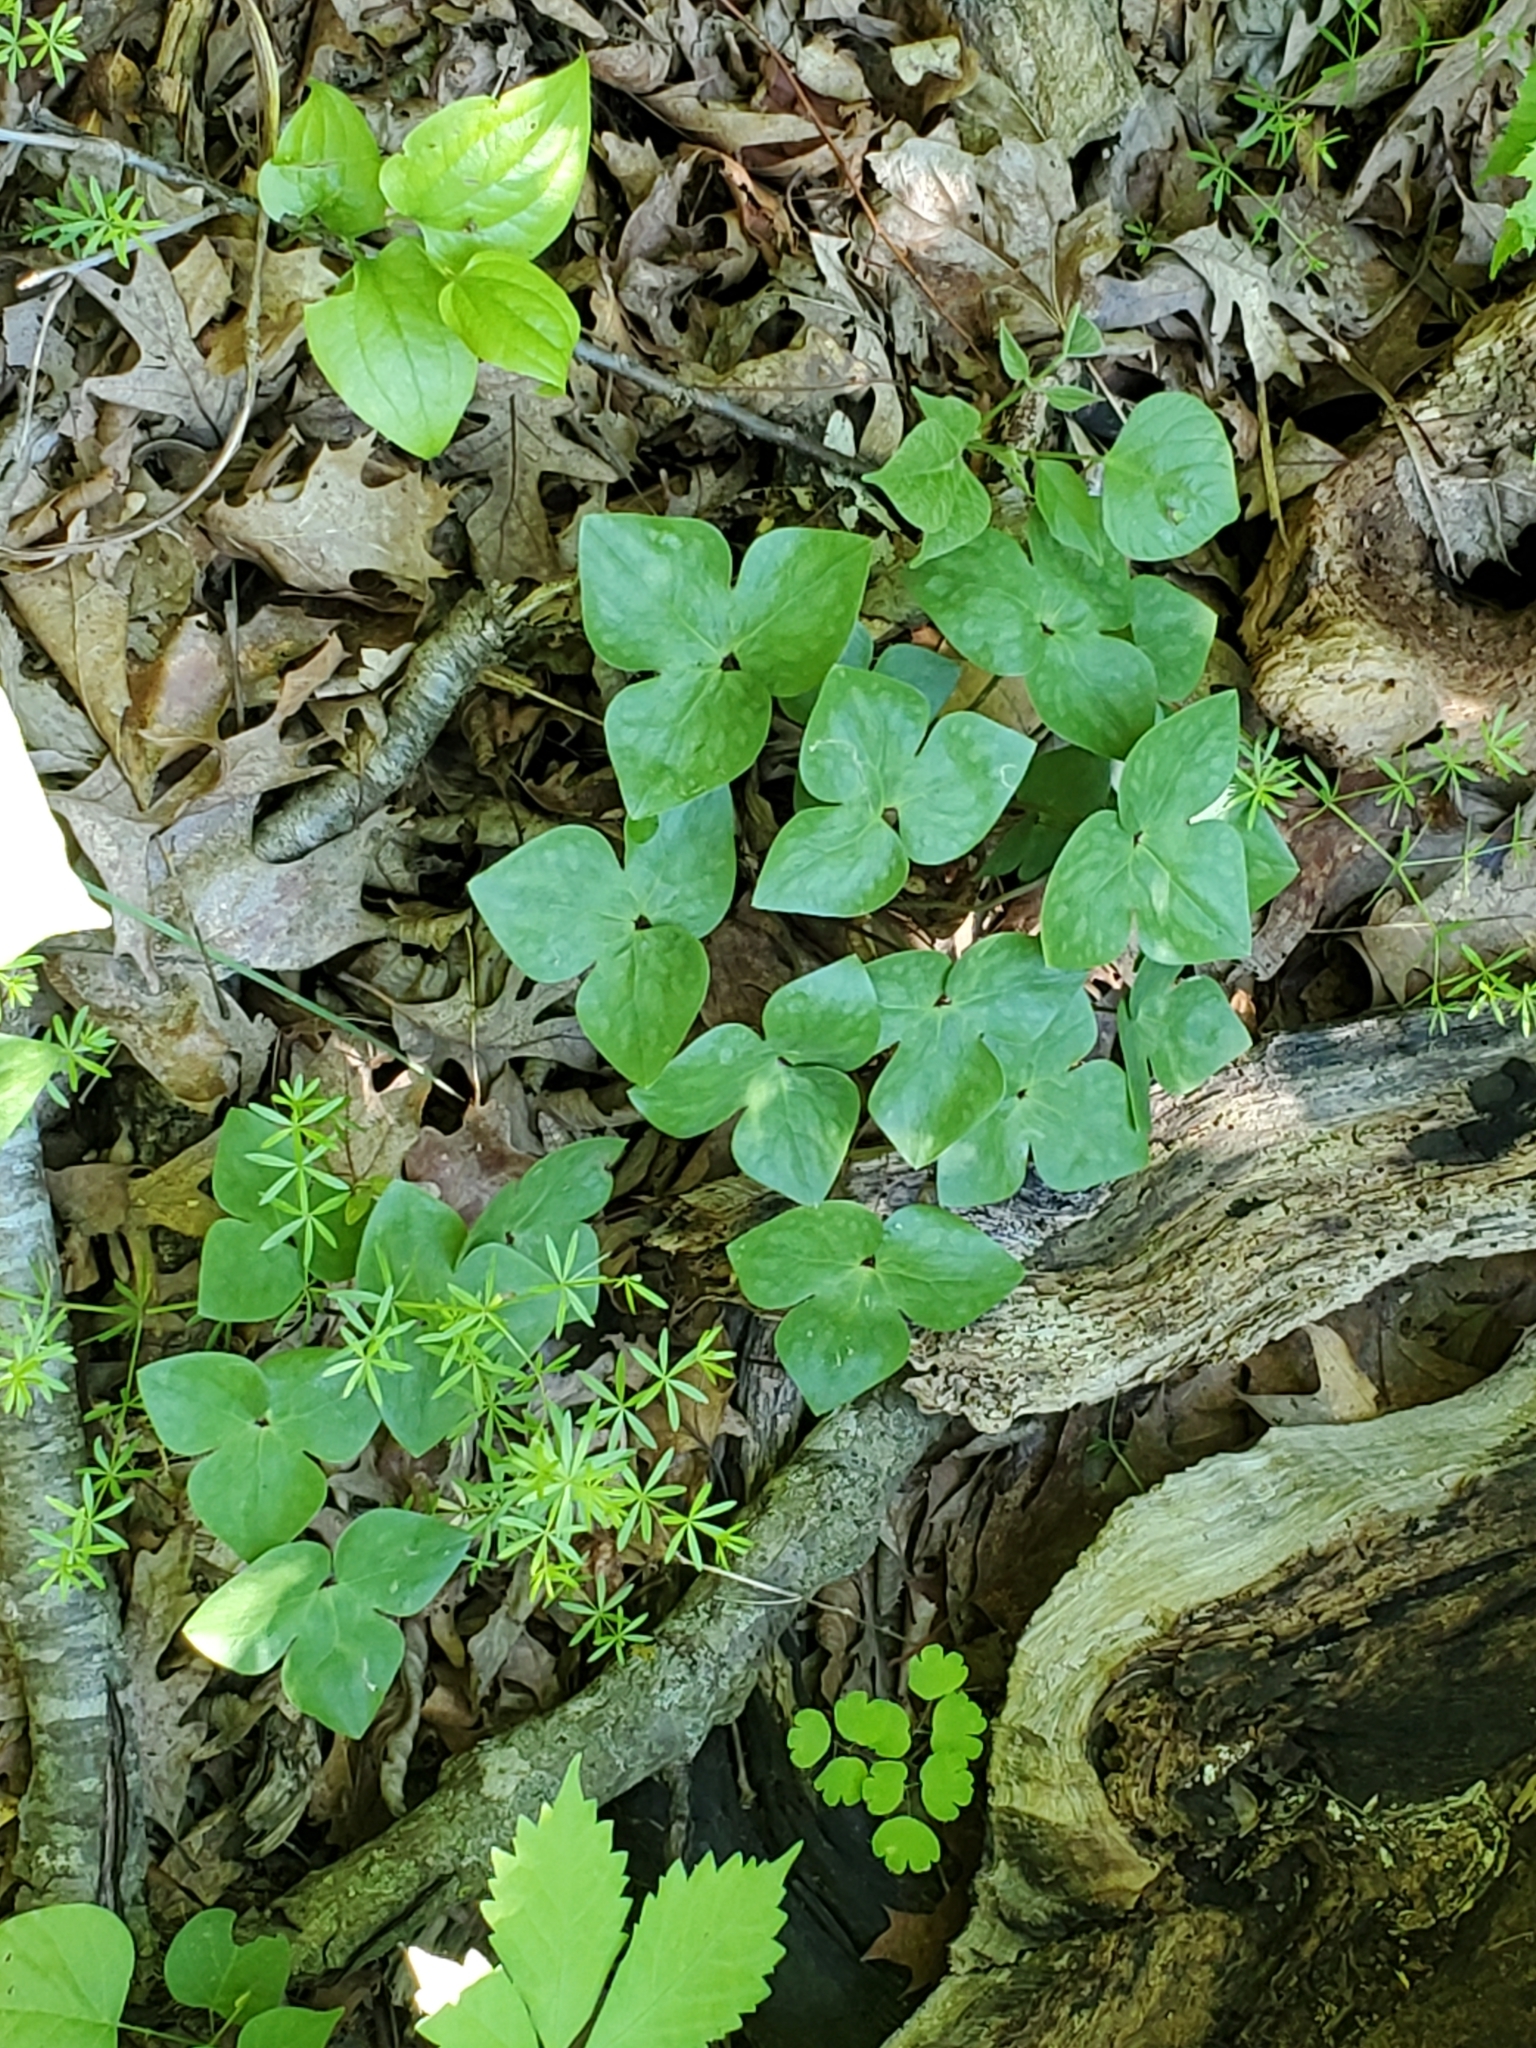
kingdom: Plantae
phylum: Tracheophyta
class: Magnoliopsida
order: Ranunculales
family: Ranunculaceae
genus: Hepatica
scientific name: Hepatica acutiloba
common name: Sharp-lobed hepatica
